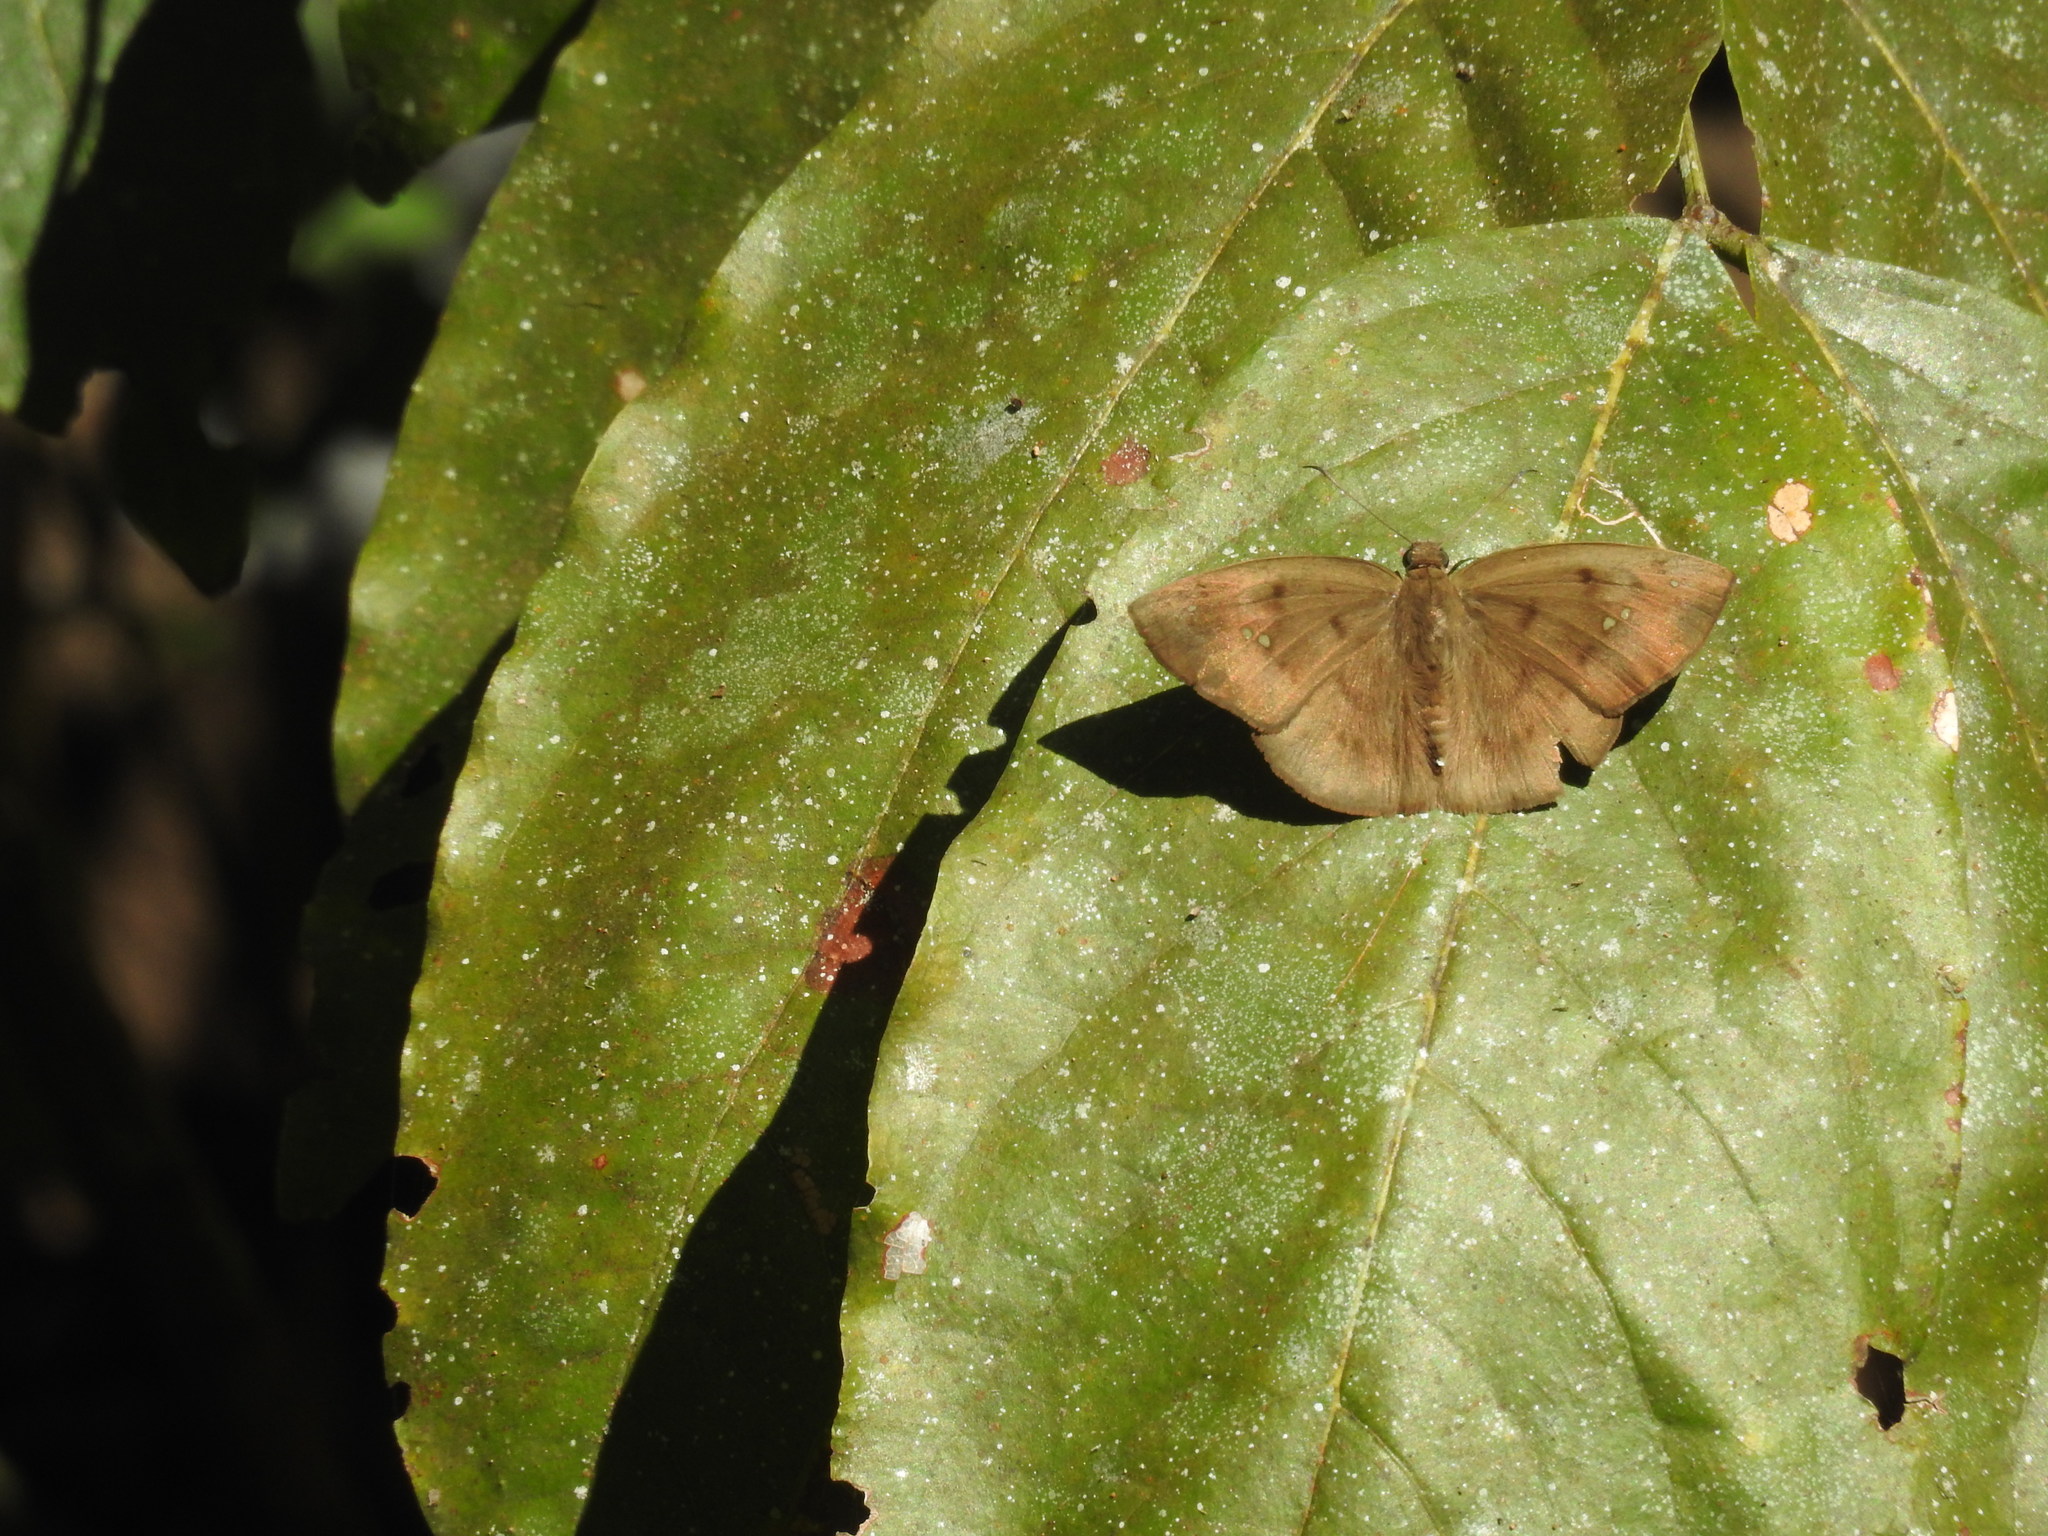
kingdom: Animalia
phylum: Arthropoda
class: Insecta
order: Lepidoptera
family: Hesperiidae
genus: Tagiades
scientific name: Tagiades japetus
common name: Pied flat
